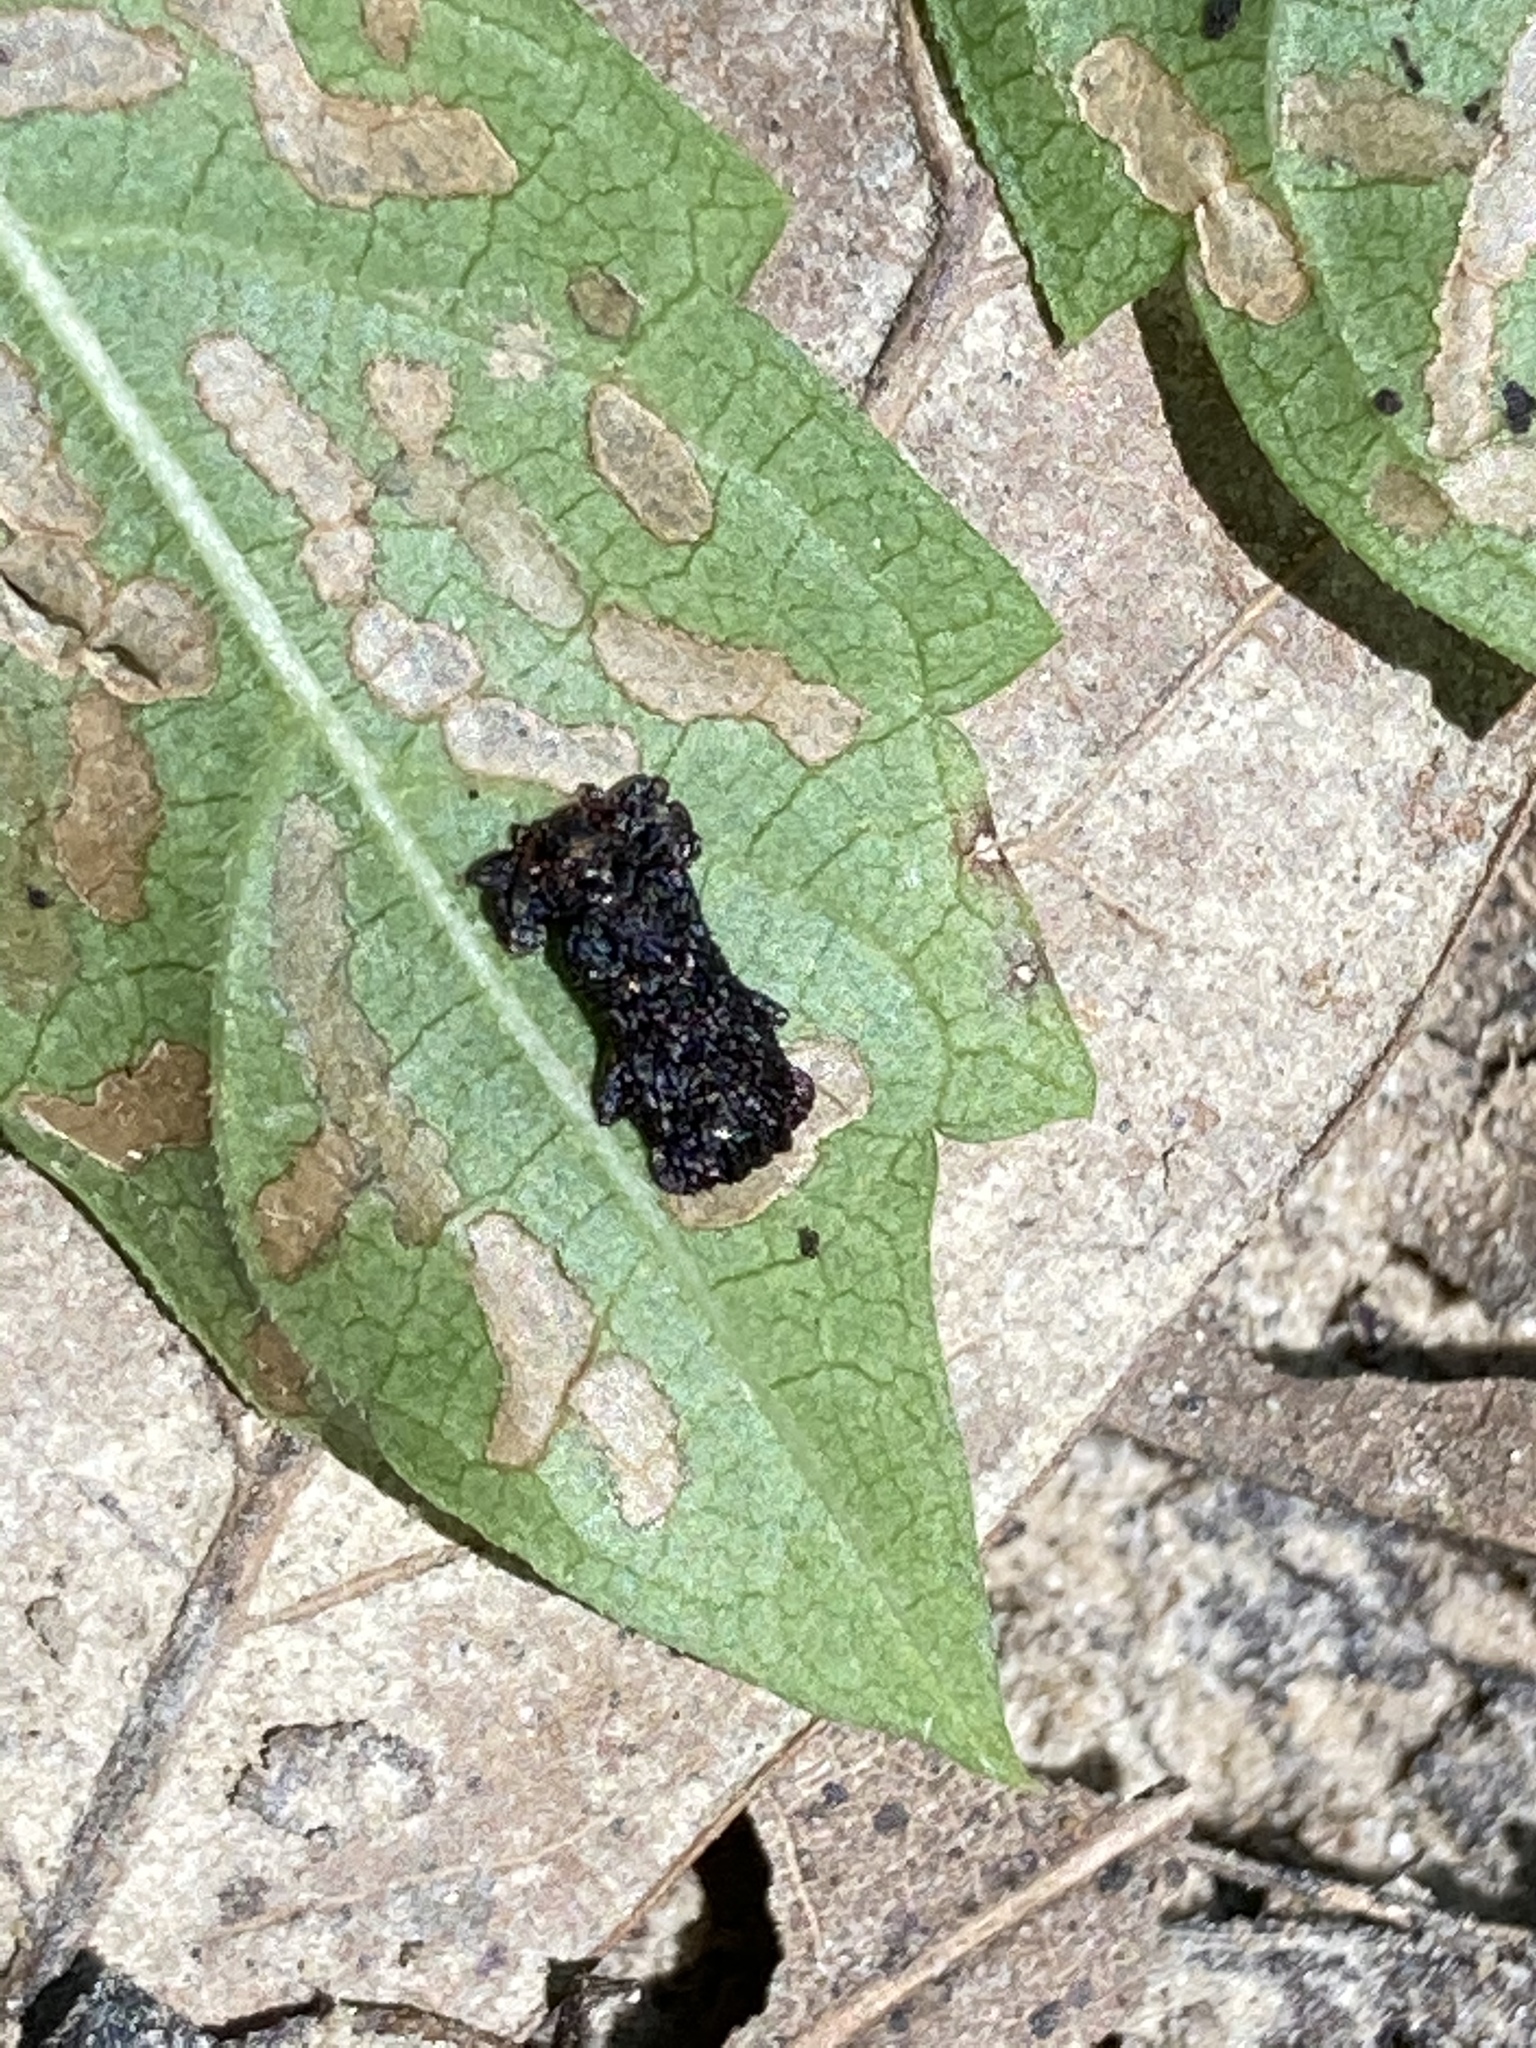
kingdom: Animalia
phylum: Arthropoda
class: Insecta
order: Coleoptera
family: Chrysomelidae
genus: Octotoma
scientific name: Octotoma plicatula
